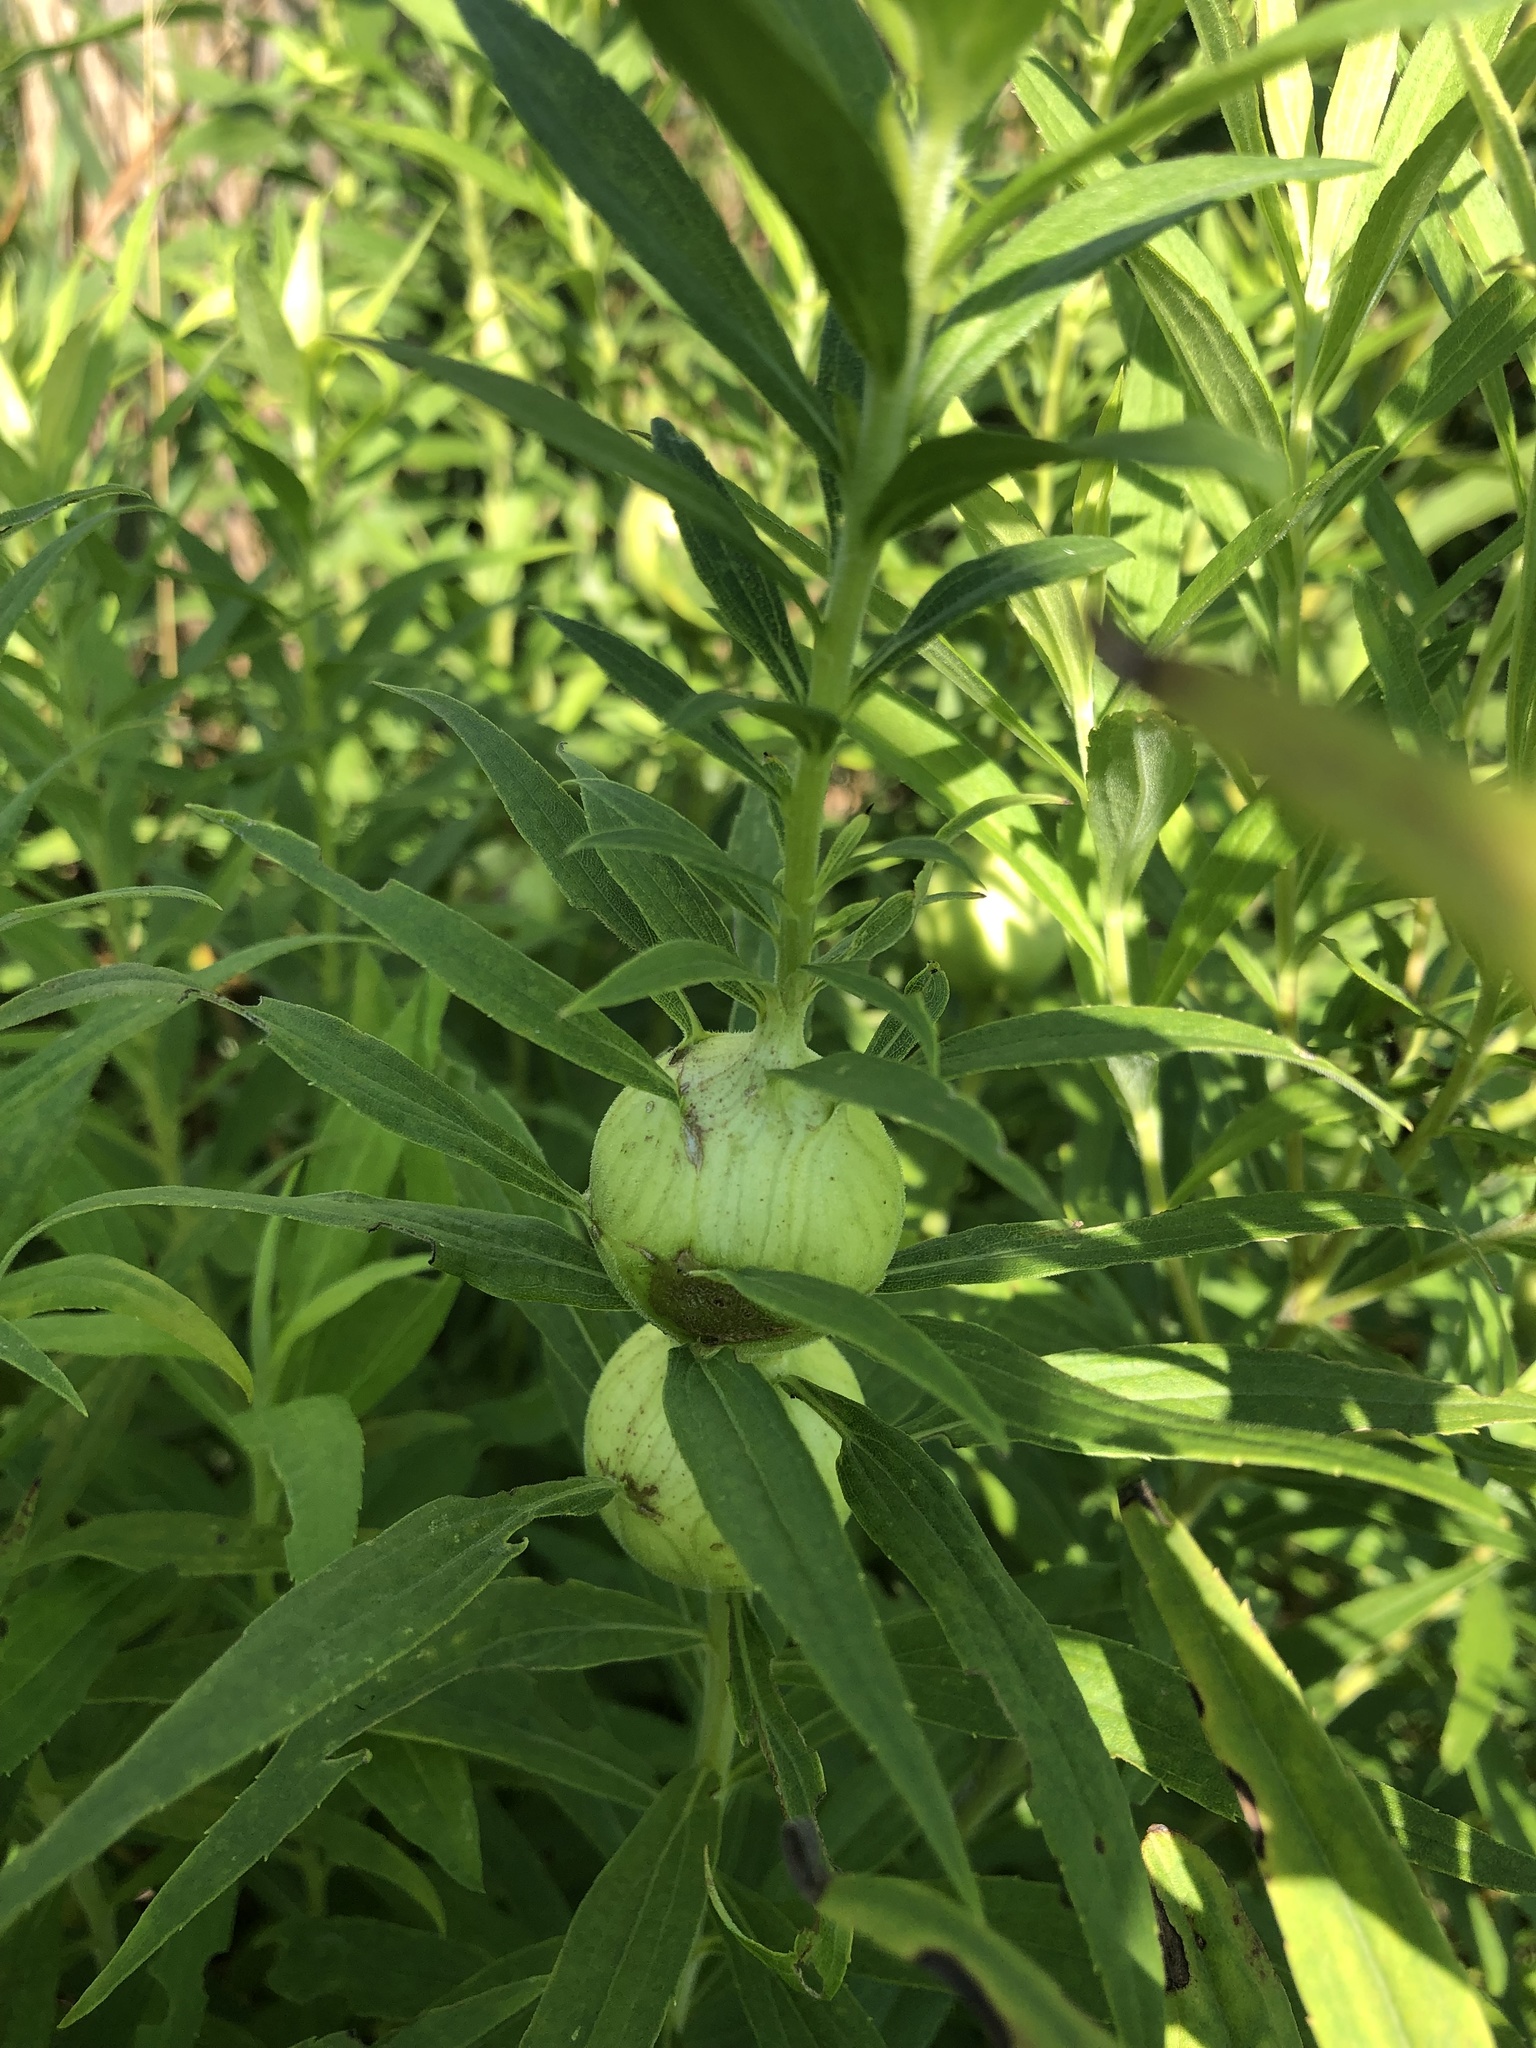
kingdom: Animalia
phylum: Arthropoda
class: Insecta
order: Diptera
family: Tephritidae
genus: Eurosta
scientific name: Eurosta solidaginis
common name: Goldenrod gall fly
